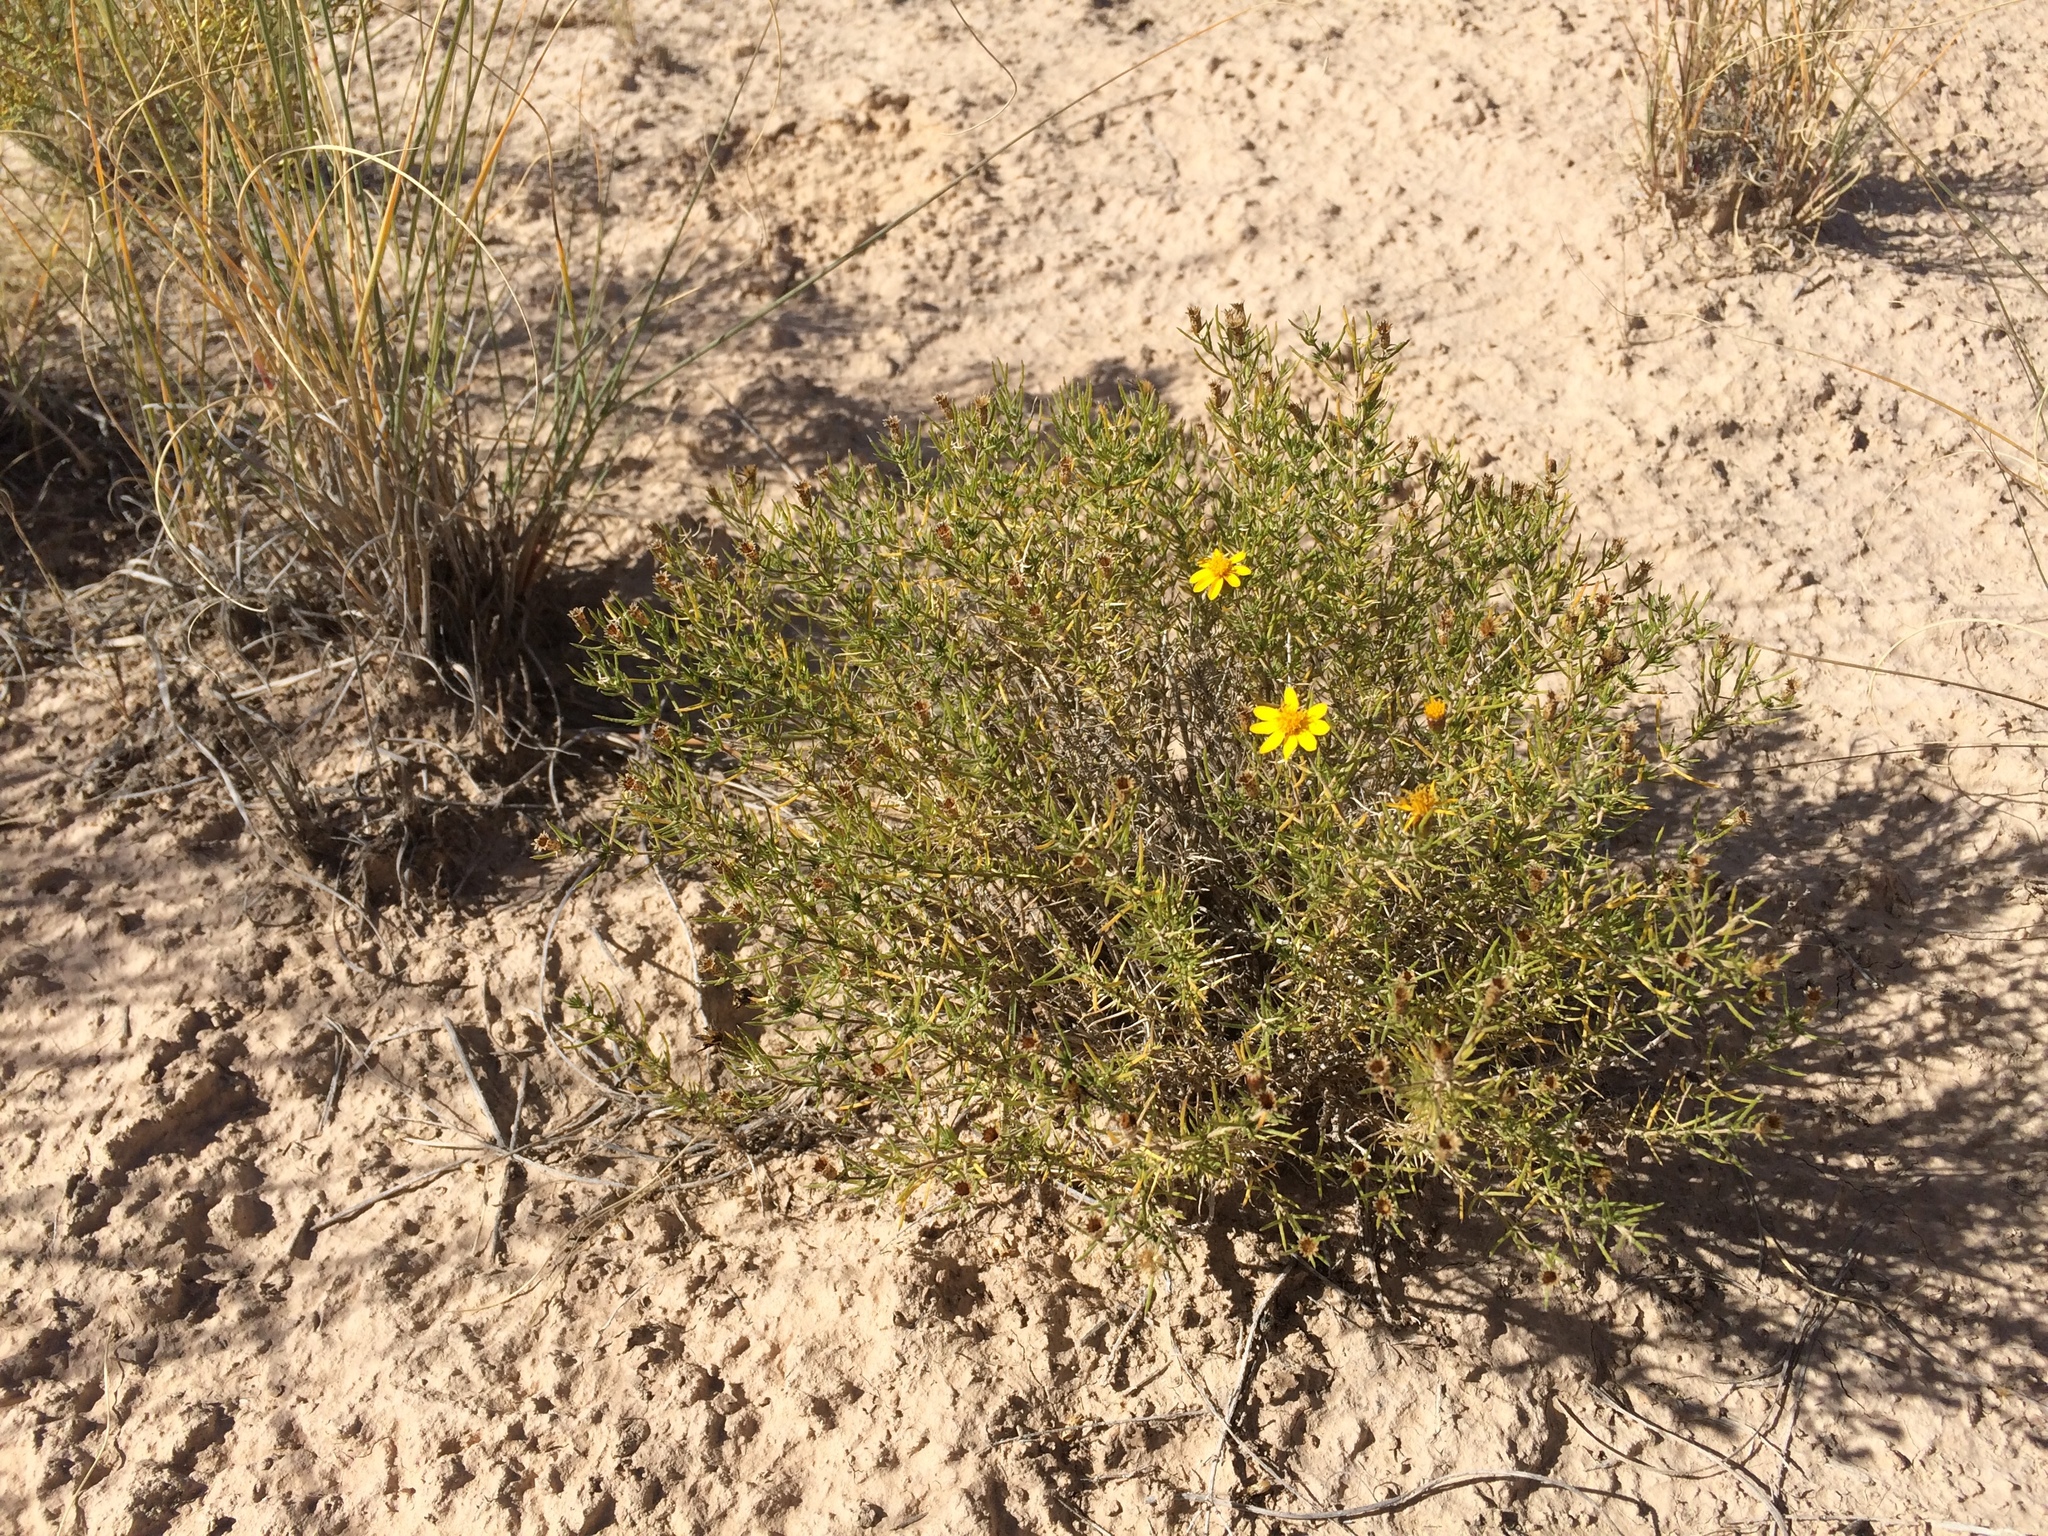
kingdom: Plantae
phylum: Tracheophyta
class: Magnoliopsida
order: Asterales
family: Asteraceae
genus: Thymophylla
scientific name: Thymophylla acerosa
